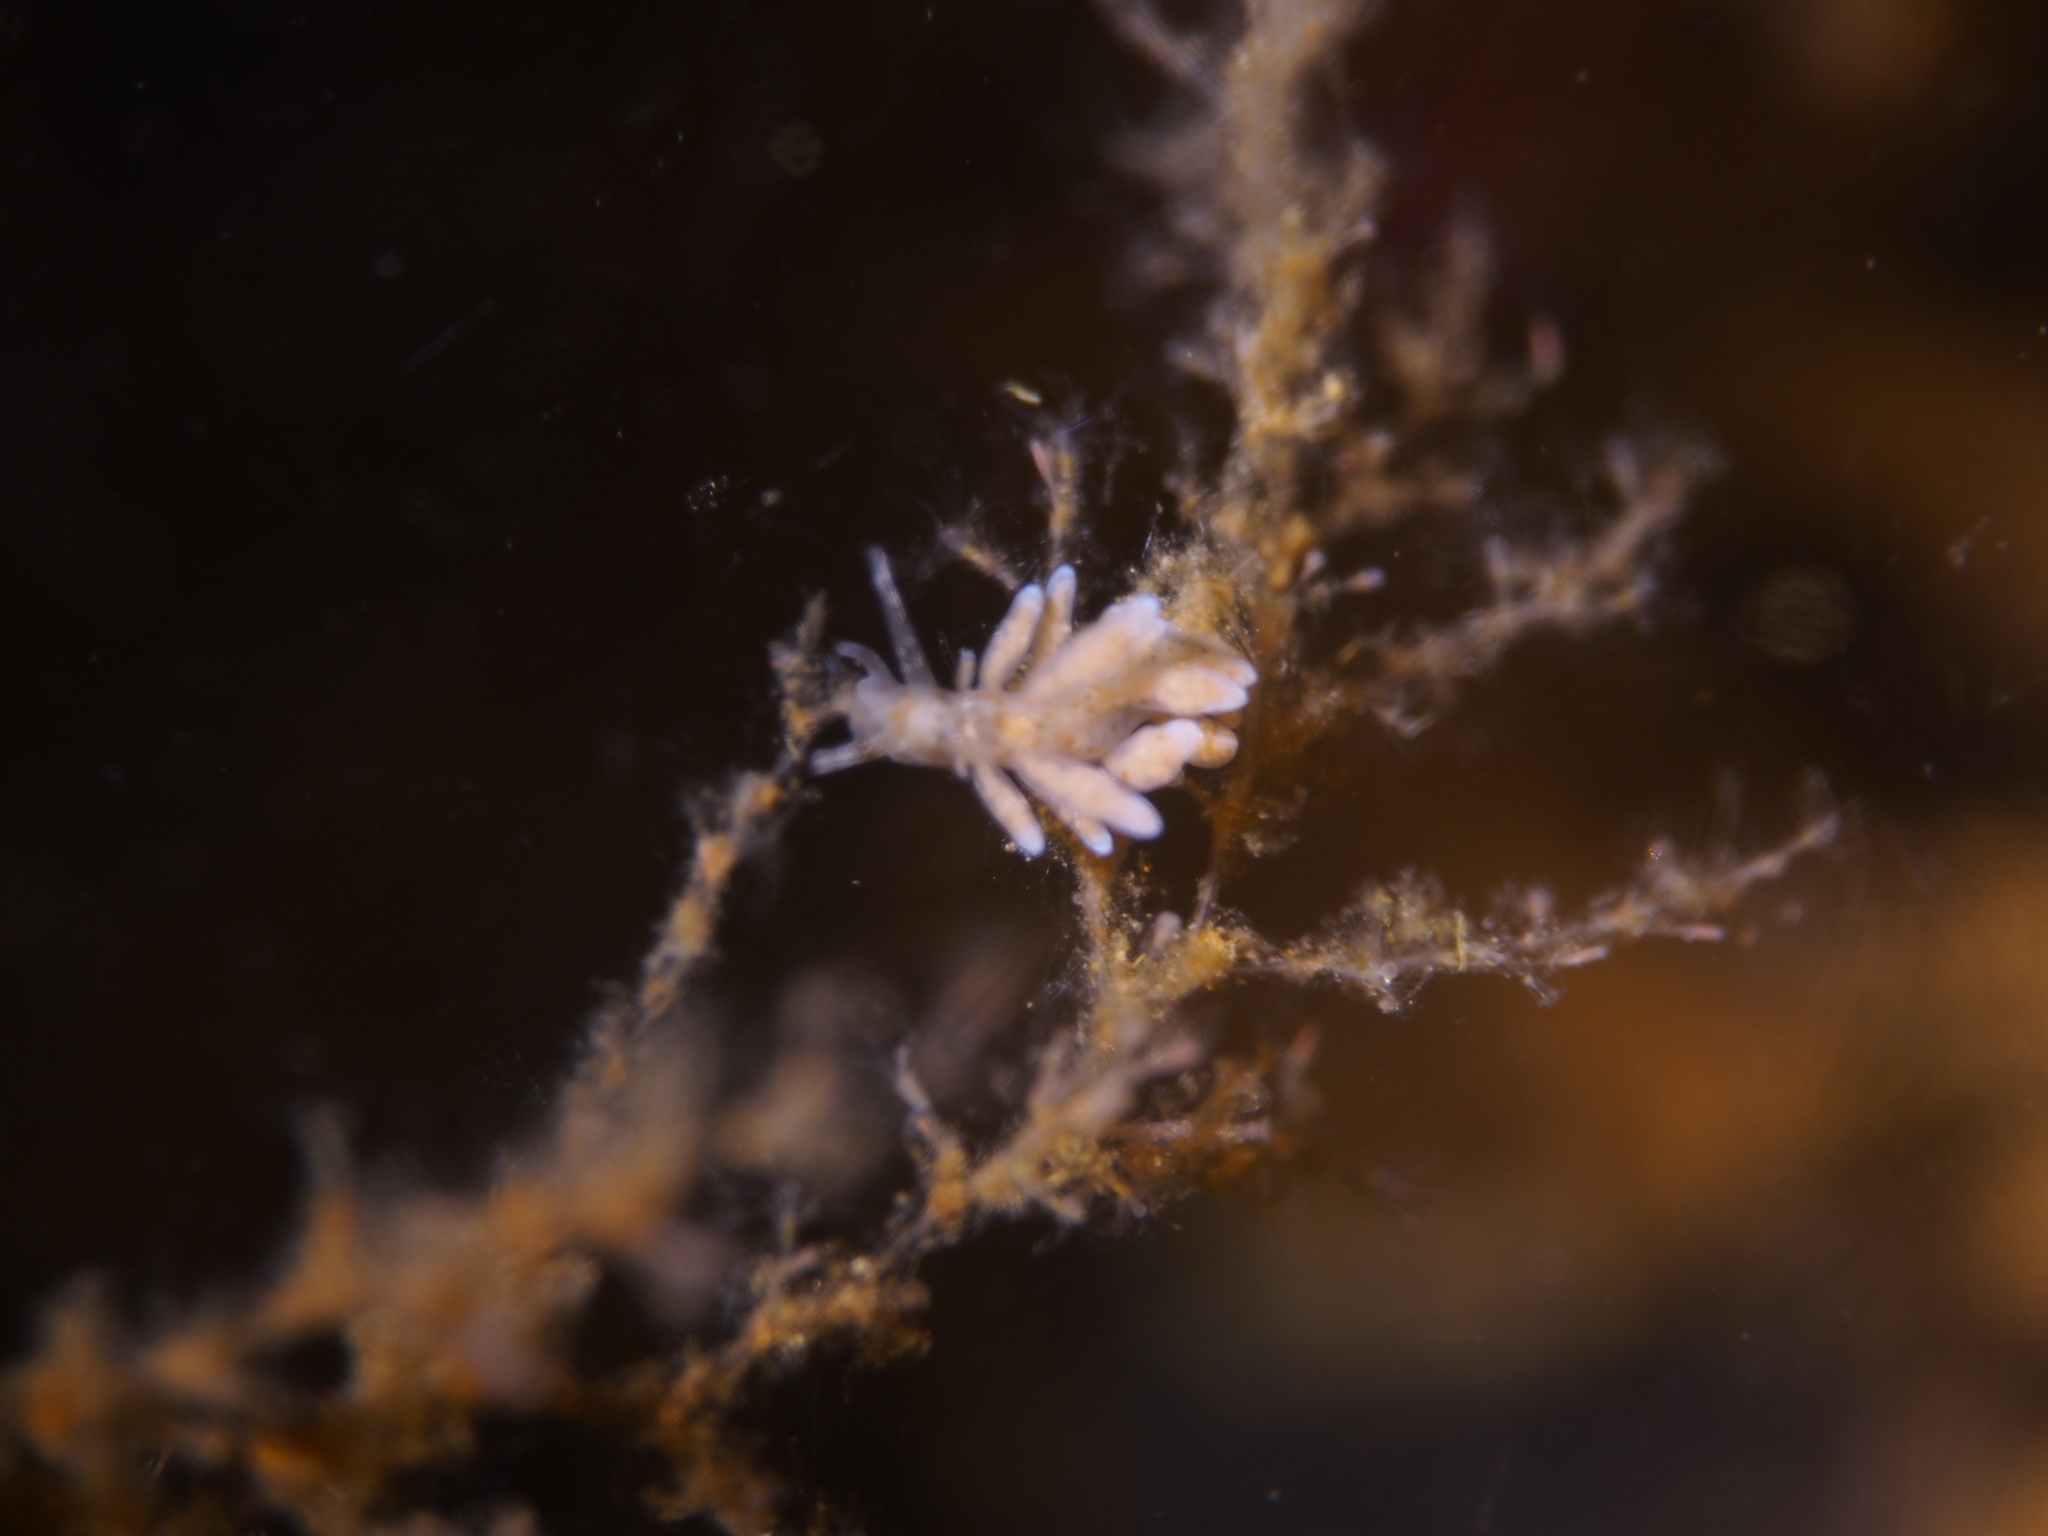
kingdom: Animalia
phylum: Mollusca
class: Gastropoda
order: Nudibranchia
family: Eubranchidae
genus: Eubranchus
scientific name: Eubranchus rupium
